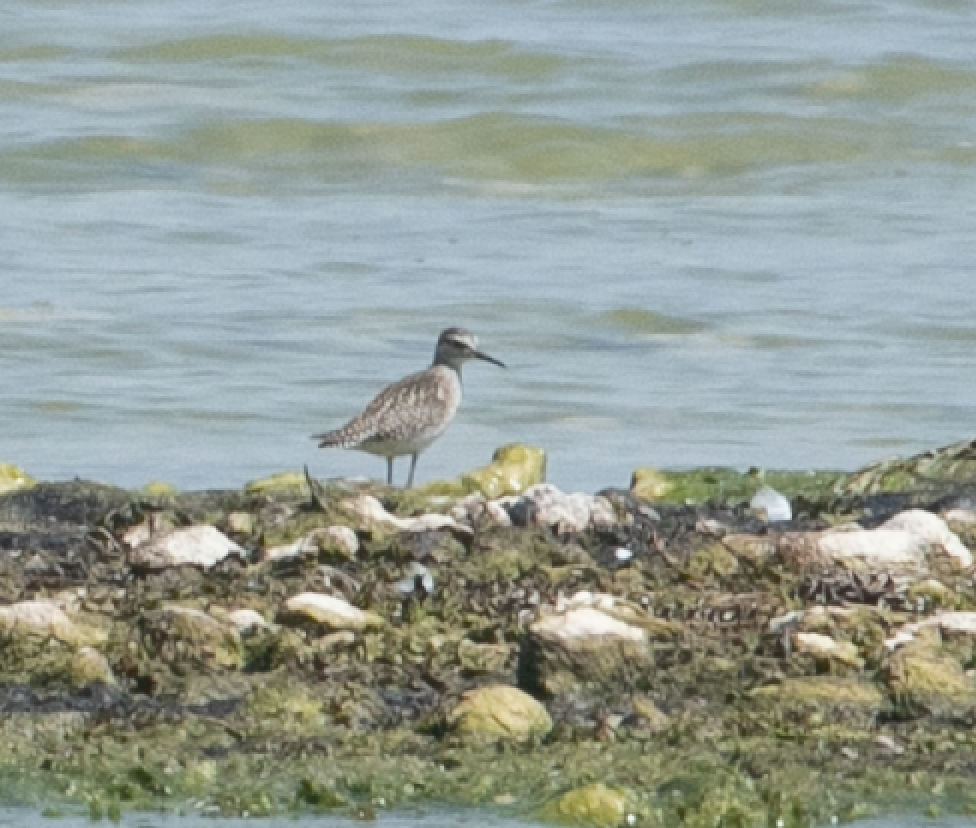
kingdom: Animalia
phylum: Chordata
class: Aves
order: Charadriiformes
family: Scolopacidae
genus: Tringa
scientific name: Tringa glareola
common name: Wood sandpiper
